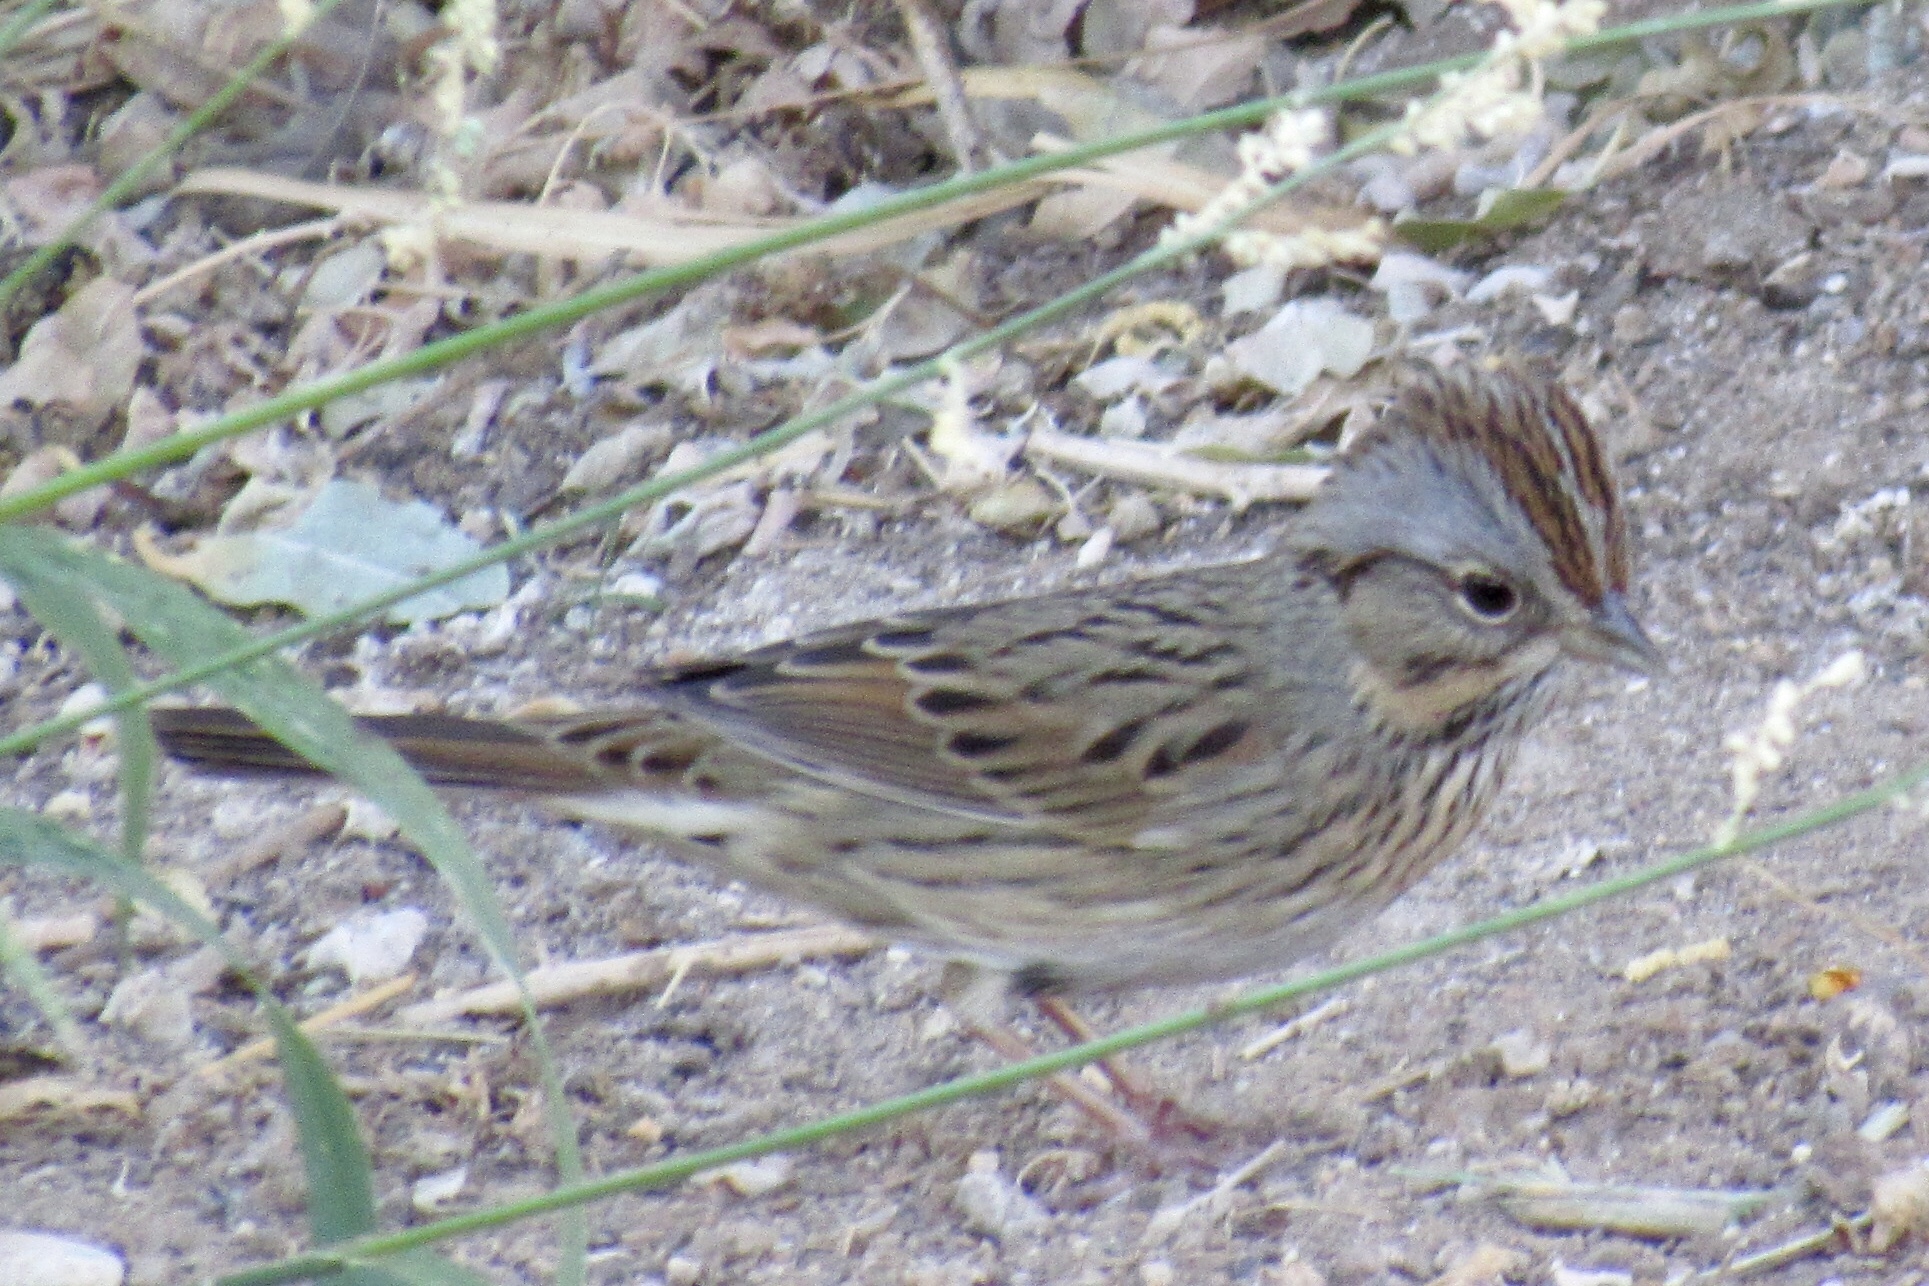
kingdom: Animalia
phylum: Chordata
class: Aves
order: Passeriformes
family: Passerellidae
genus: Melospiza
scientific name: Melospiza lincolnii
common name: Lincoln's sparrow
